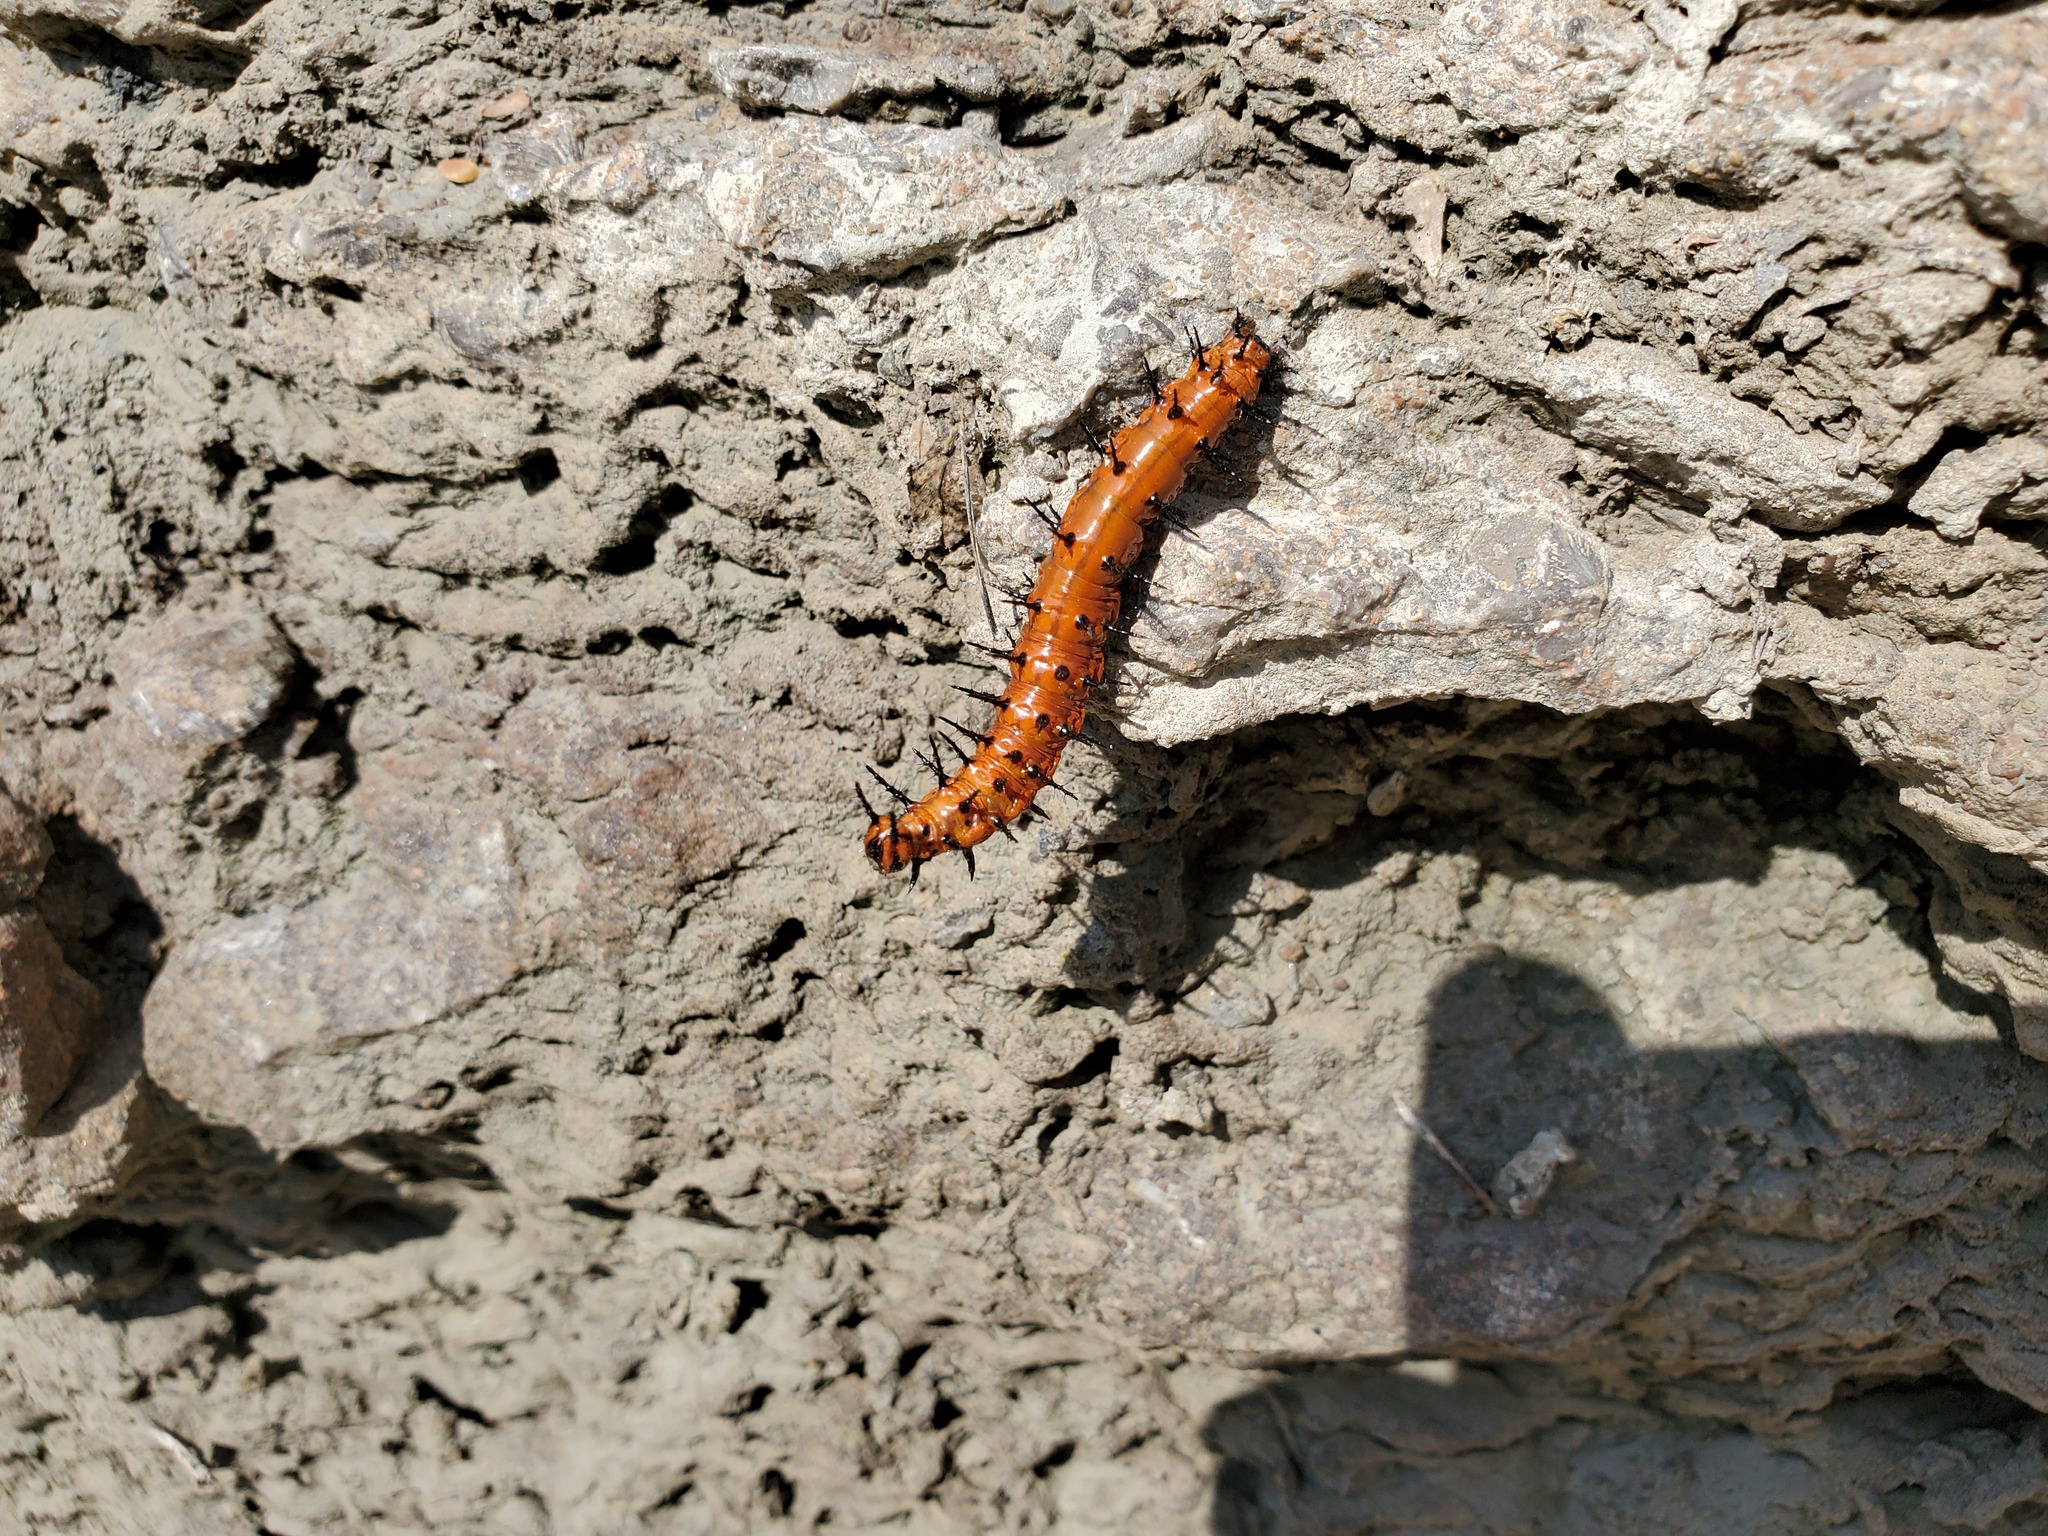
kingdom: Animalia
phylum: Arthropoda
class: Insecta
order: Lepidoptera
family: Nymphalidae
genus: Dione
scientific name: Dione vanillae
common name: Gulf fritillary
